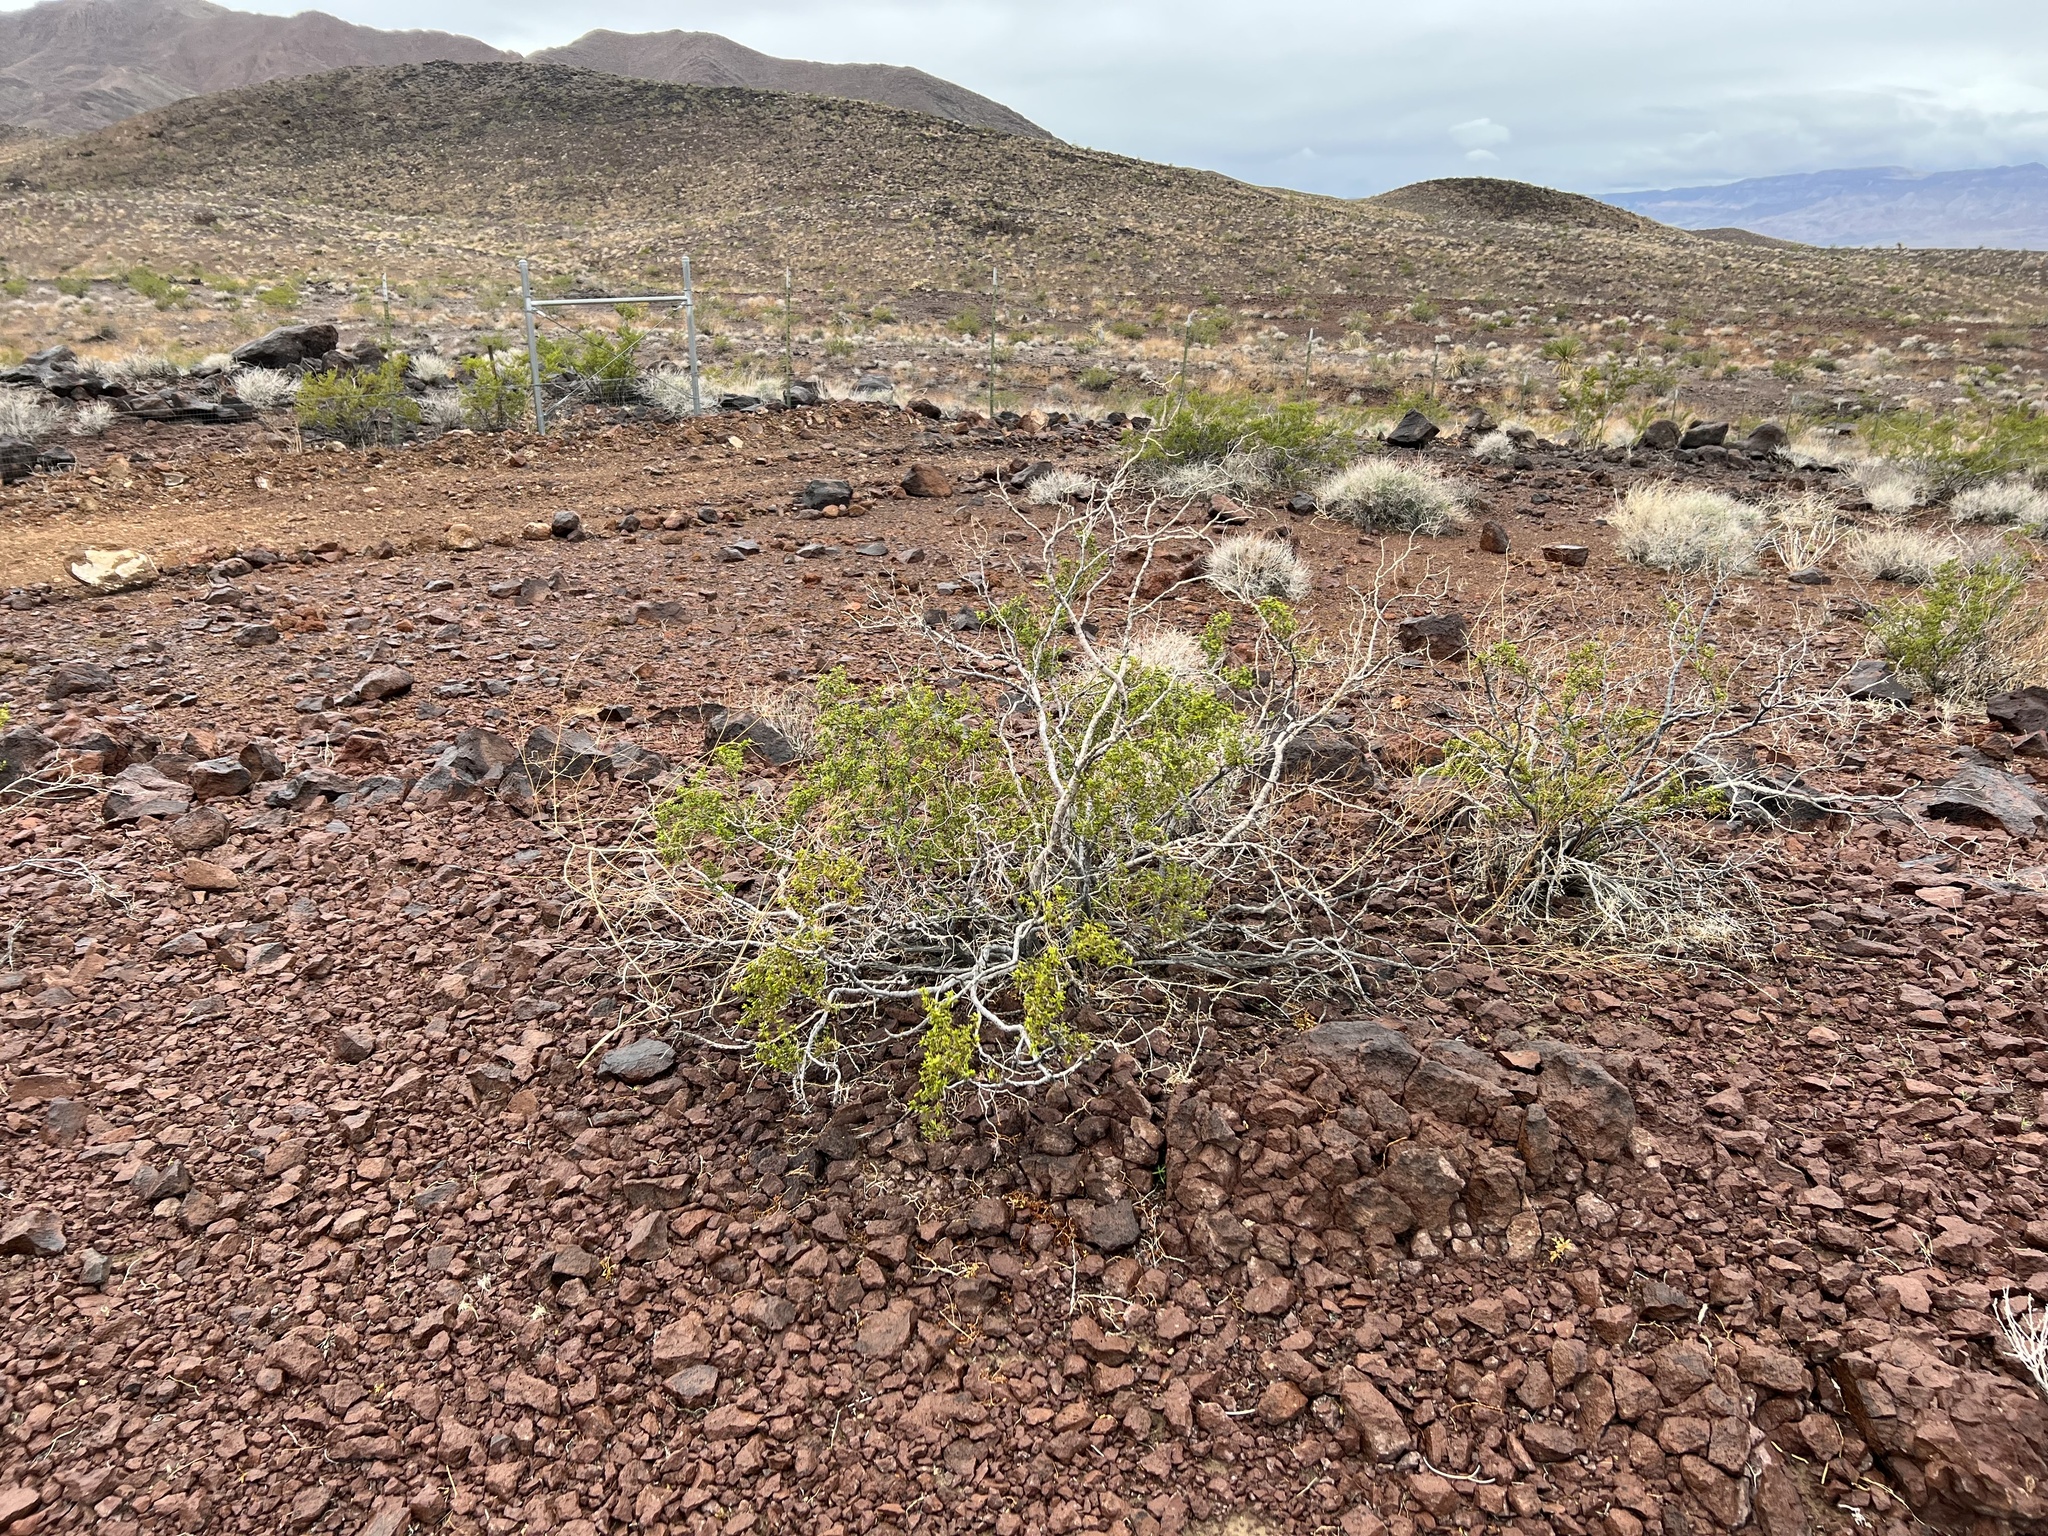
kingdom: Plantae
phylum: Tracheophyta
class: Magnoliopsida
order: Zygophyllales
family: Zygophyllaceae
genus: Larrea
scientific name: Larrea tridentata
